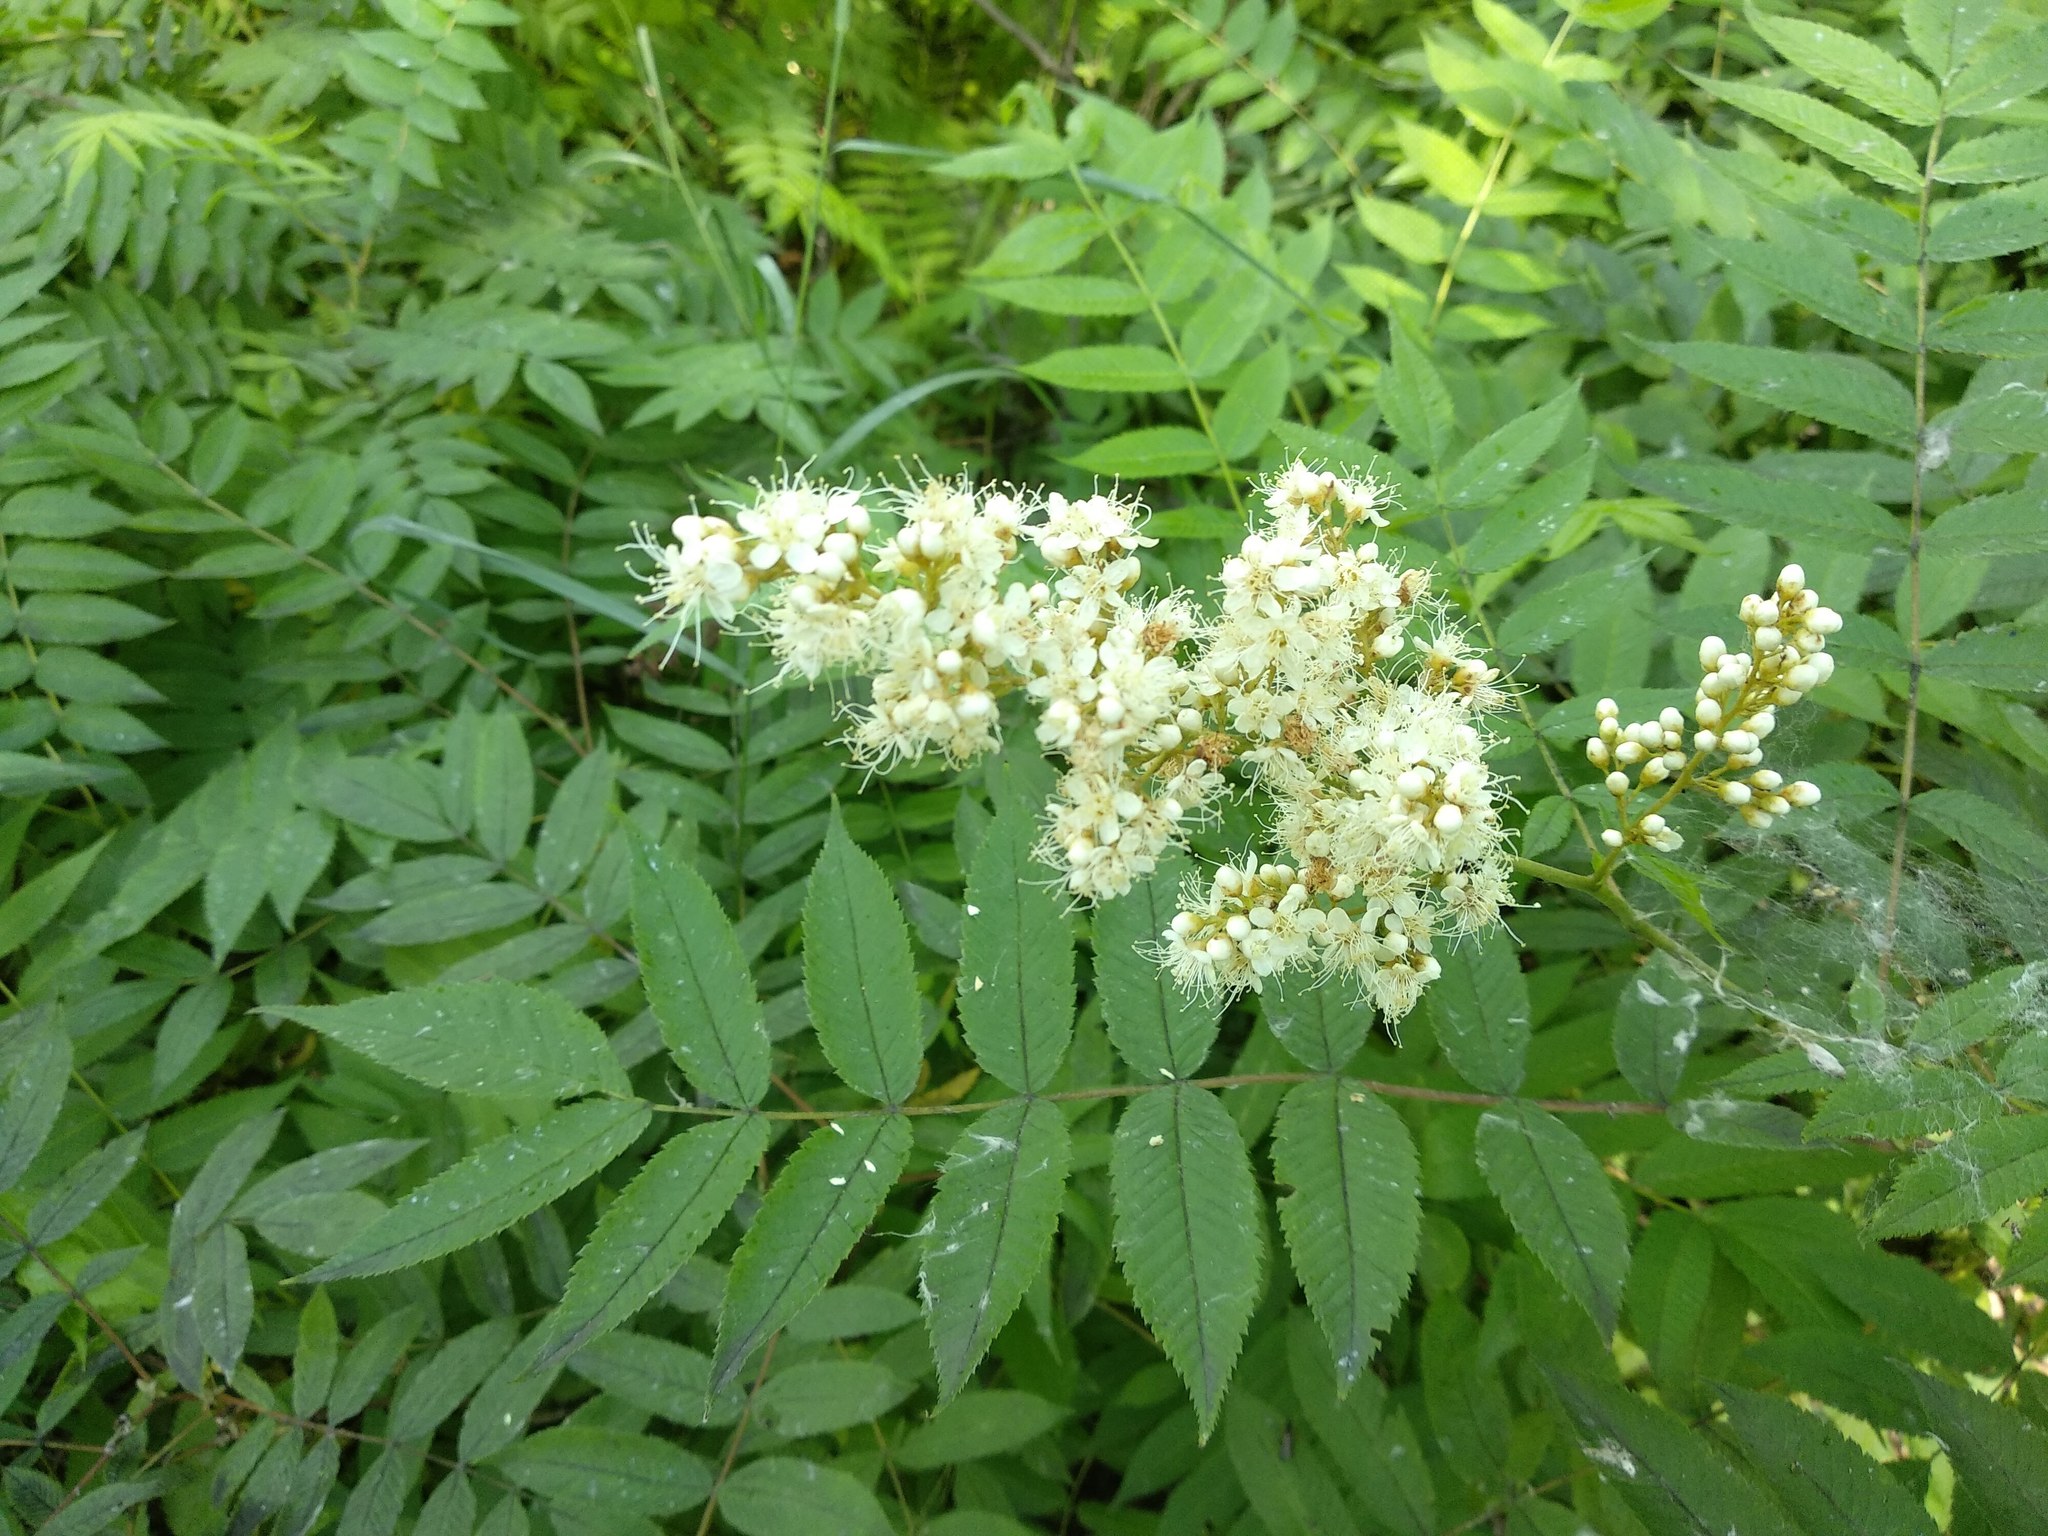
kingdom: Plantae
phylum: Tracheophyta
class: Magnoliopsida
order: Rosales
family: Rosaceae
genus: Sorbaria
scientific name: Sorbaria sorbifolia
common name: False spiraea
